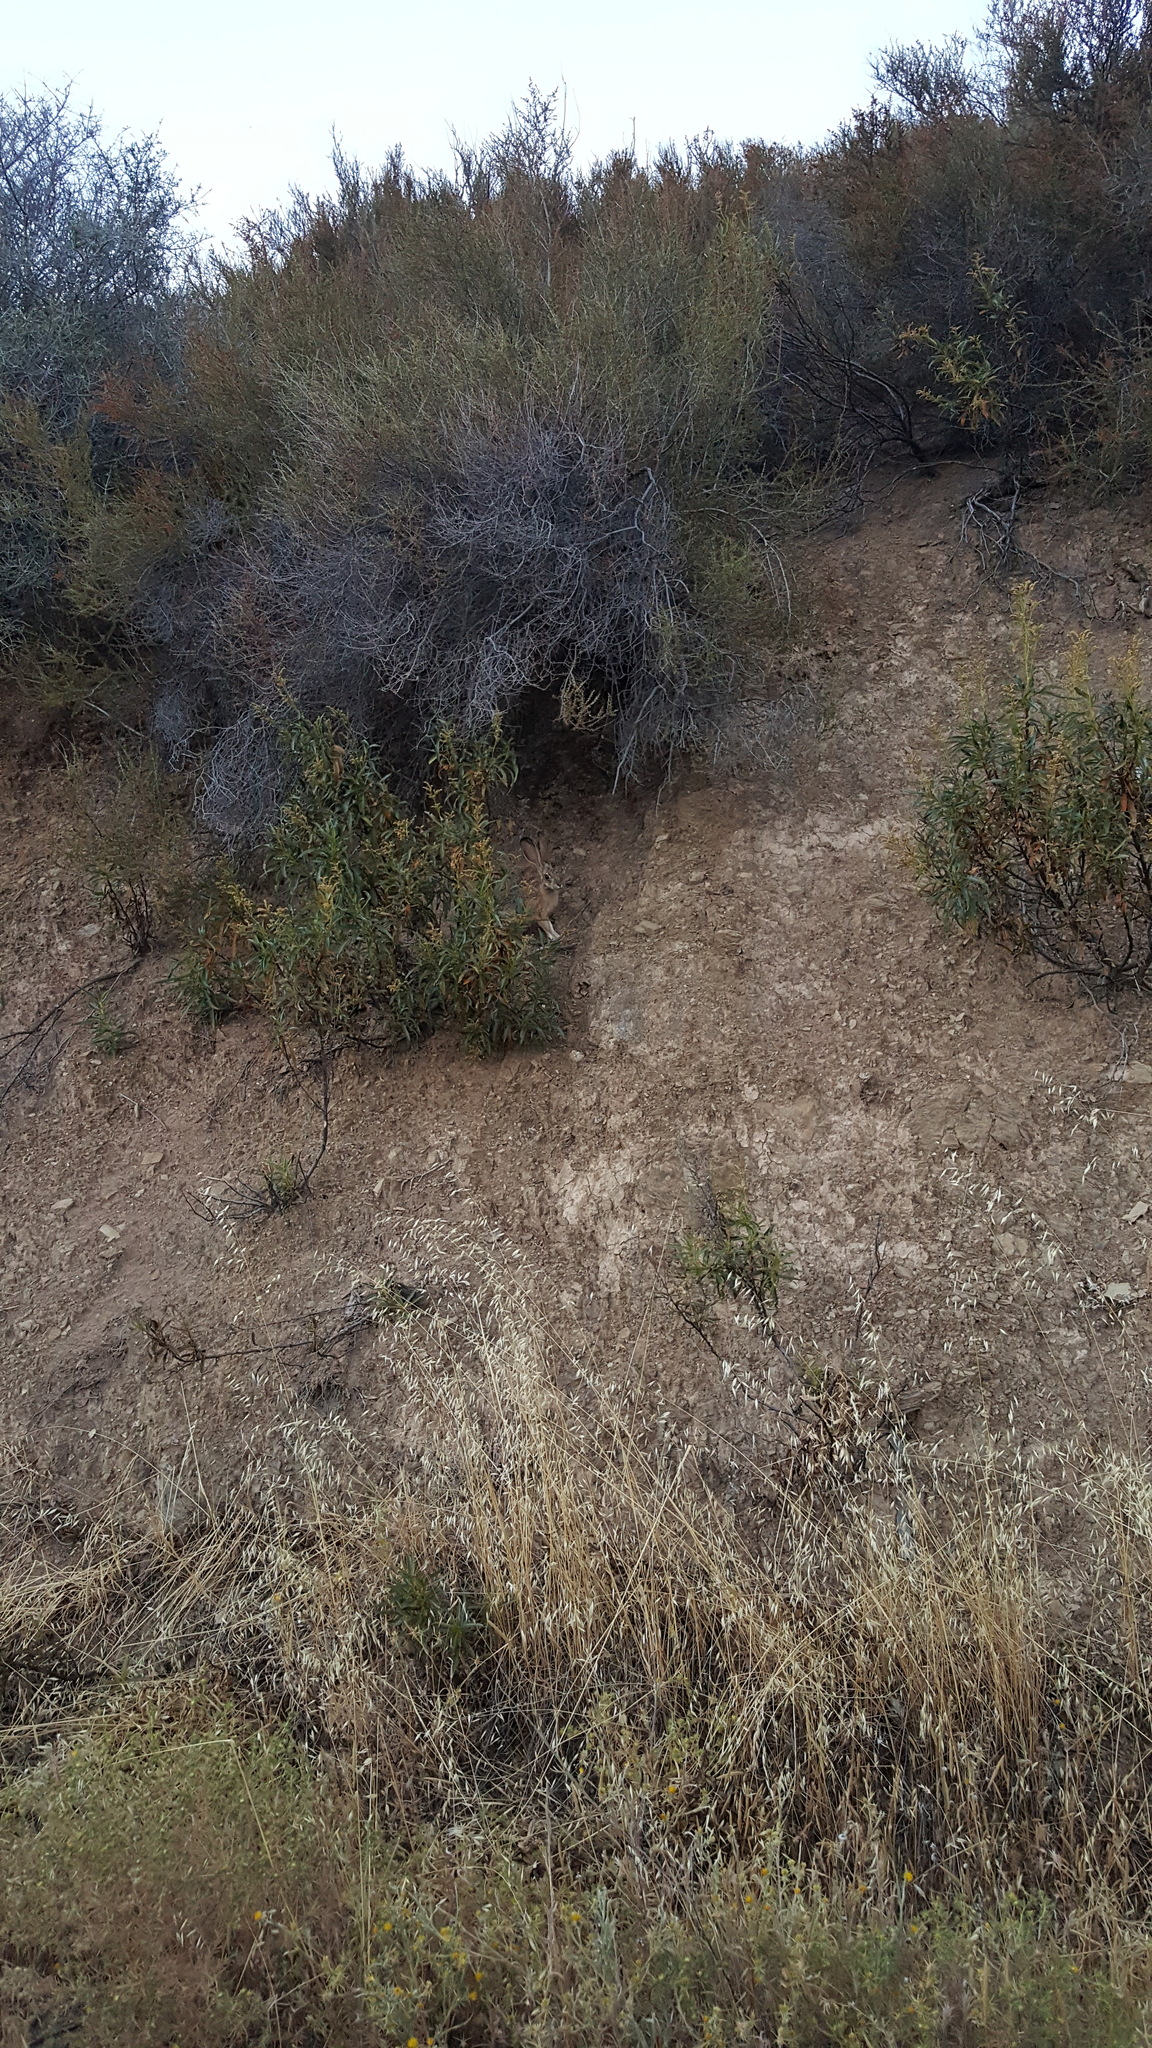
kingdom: Animalia
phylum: Chordata
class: Mammalia
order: Lagomorpha
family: Leporidae
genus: Lepus
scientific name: Lepus californicus
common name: Black-tailed jackrabbit
